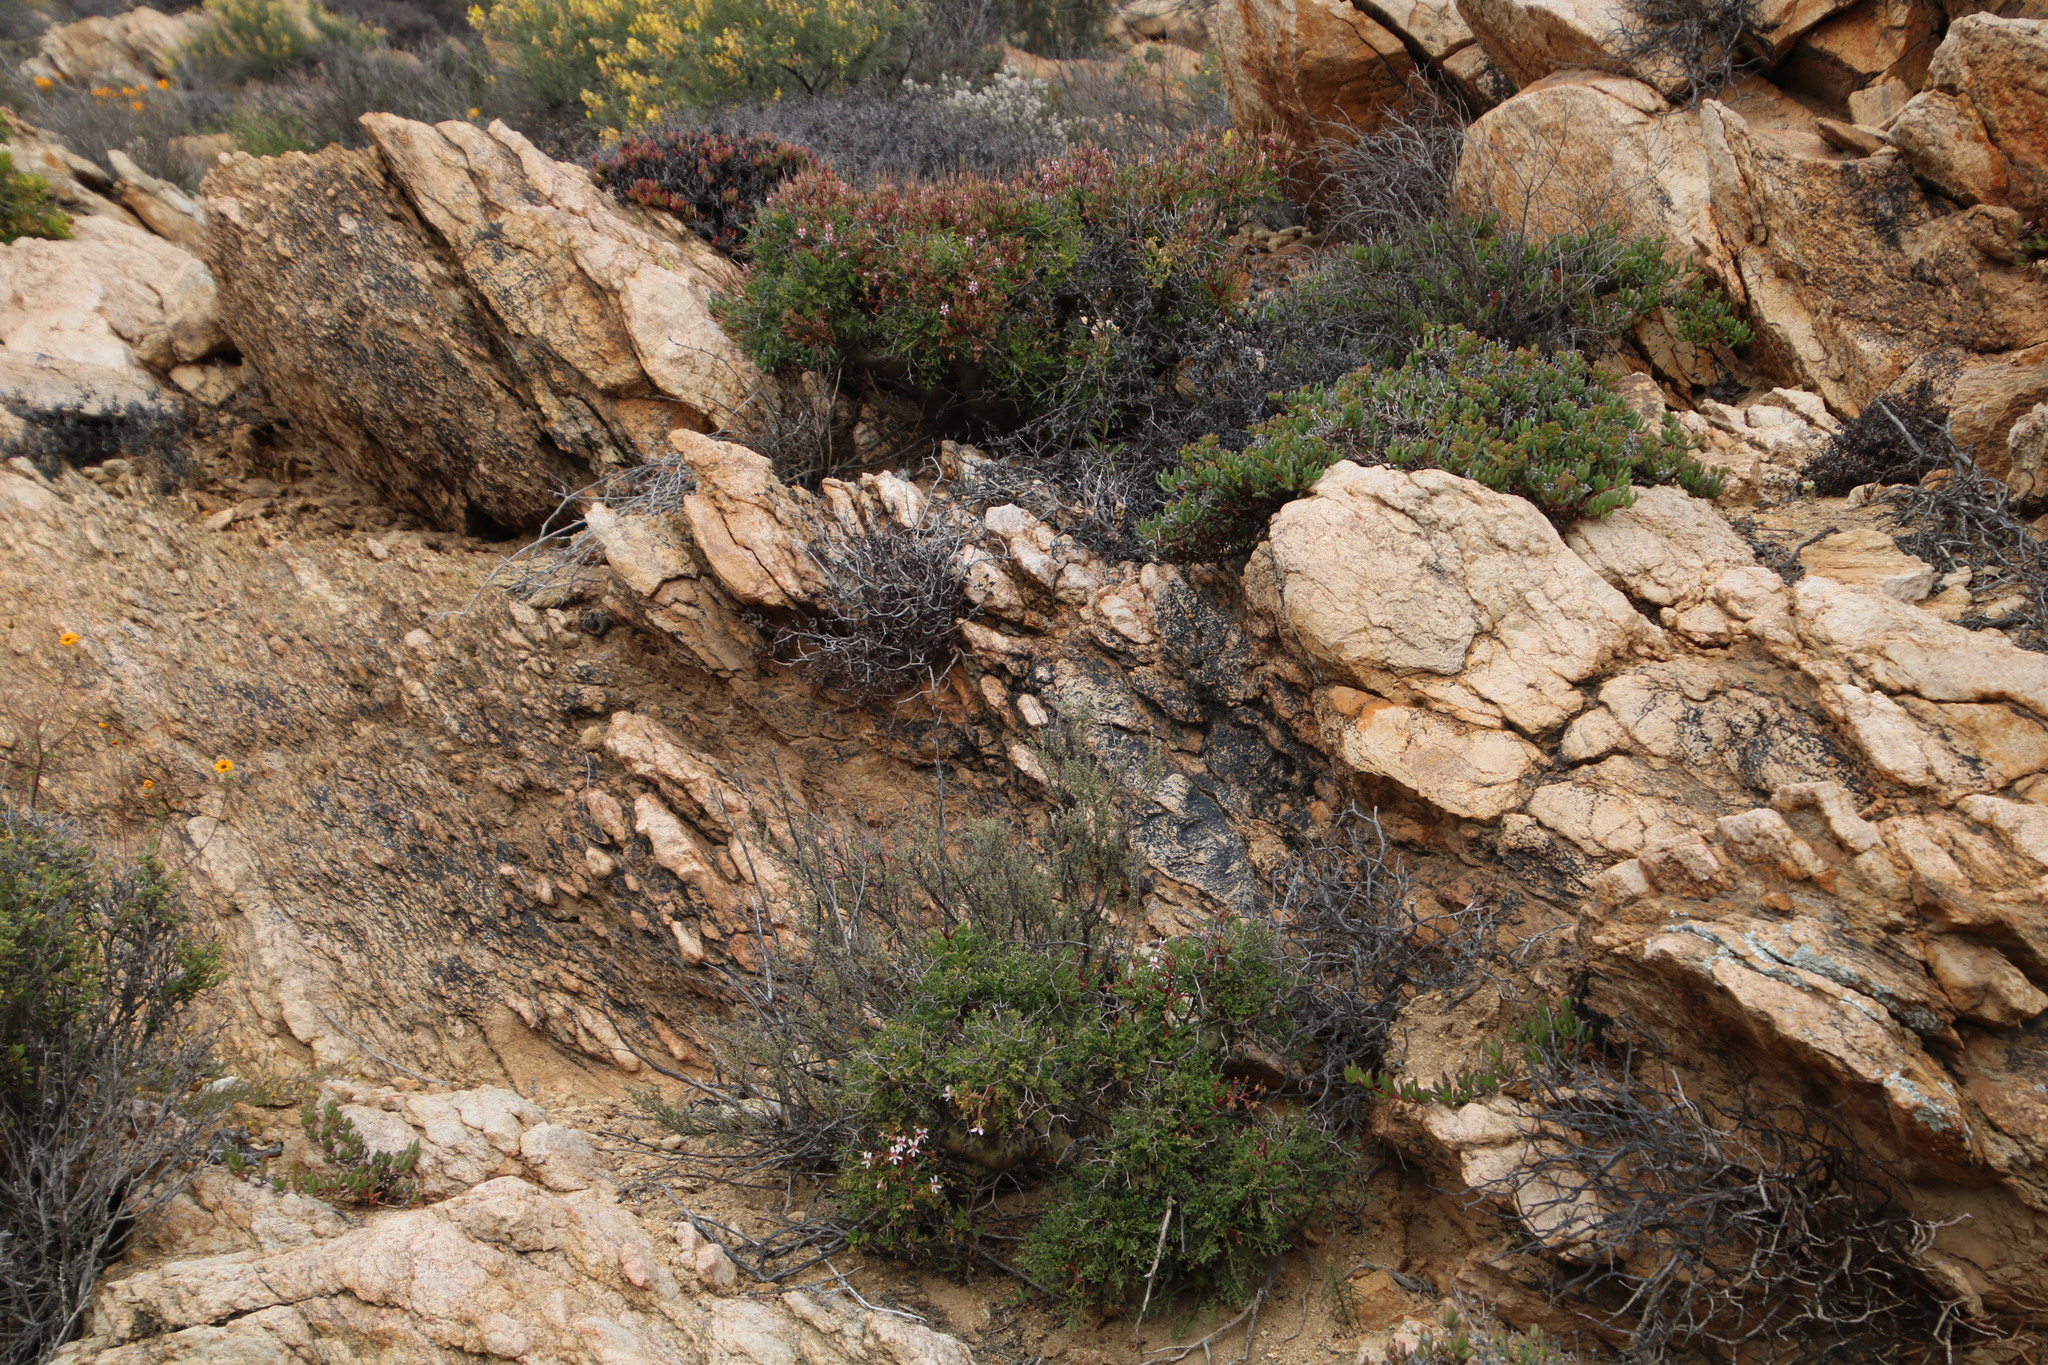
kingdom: Plantae
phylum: Tracheophyta
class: Magnoliopsida
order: Geraniales
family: Geraniaceae
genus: Pelargonium
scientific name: Pelargonium crithmifolium
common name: Samphire-leaf pelargonium
